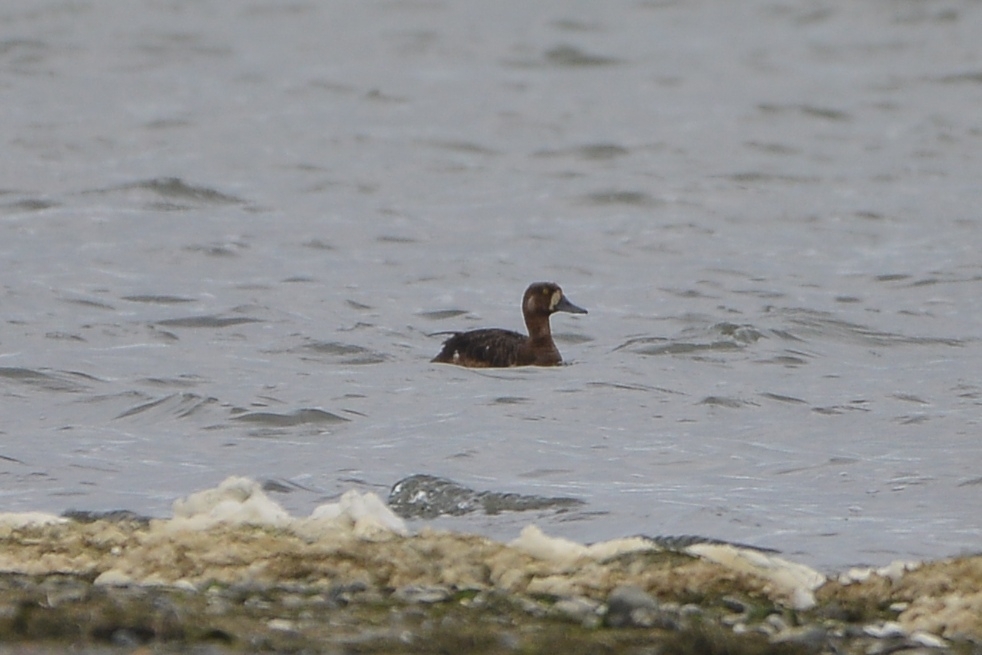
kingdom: Animalia
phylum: Chordata
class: Aves
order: Anseriformes
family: Anatidae
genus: Aythya
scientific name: Aythya marila
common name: Greater scaup
